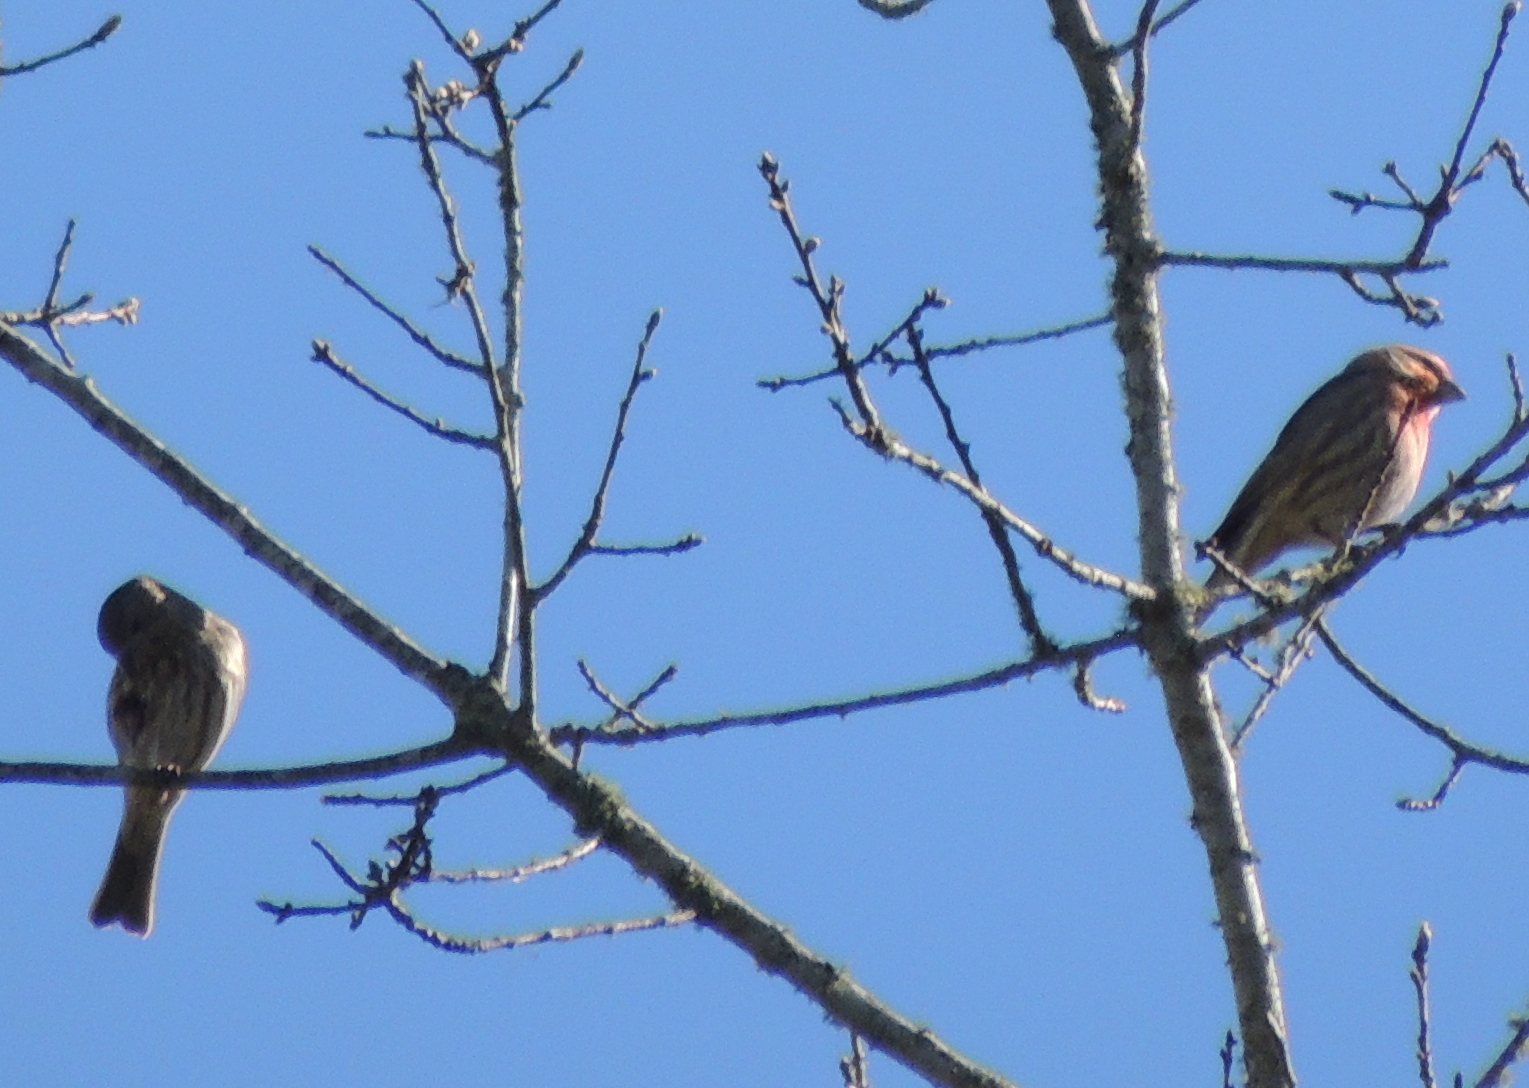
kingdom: Animalia
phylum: Chordata
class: Aves
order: Passeriformes
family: Fringillidae
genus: Haemorhous
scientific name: Haemorhous mexicanus
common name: House finch
